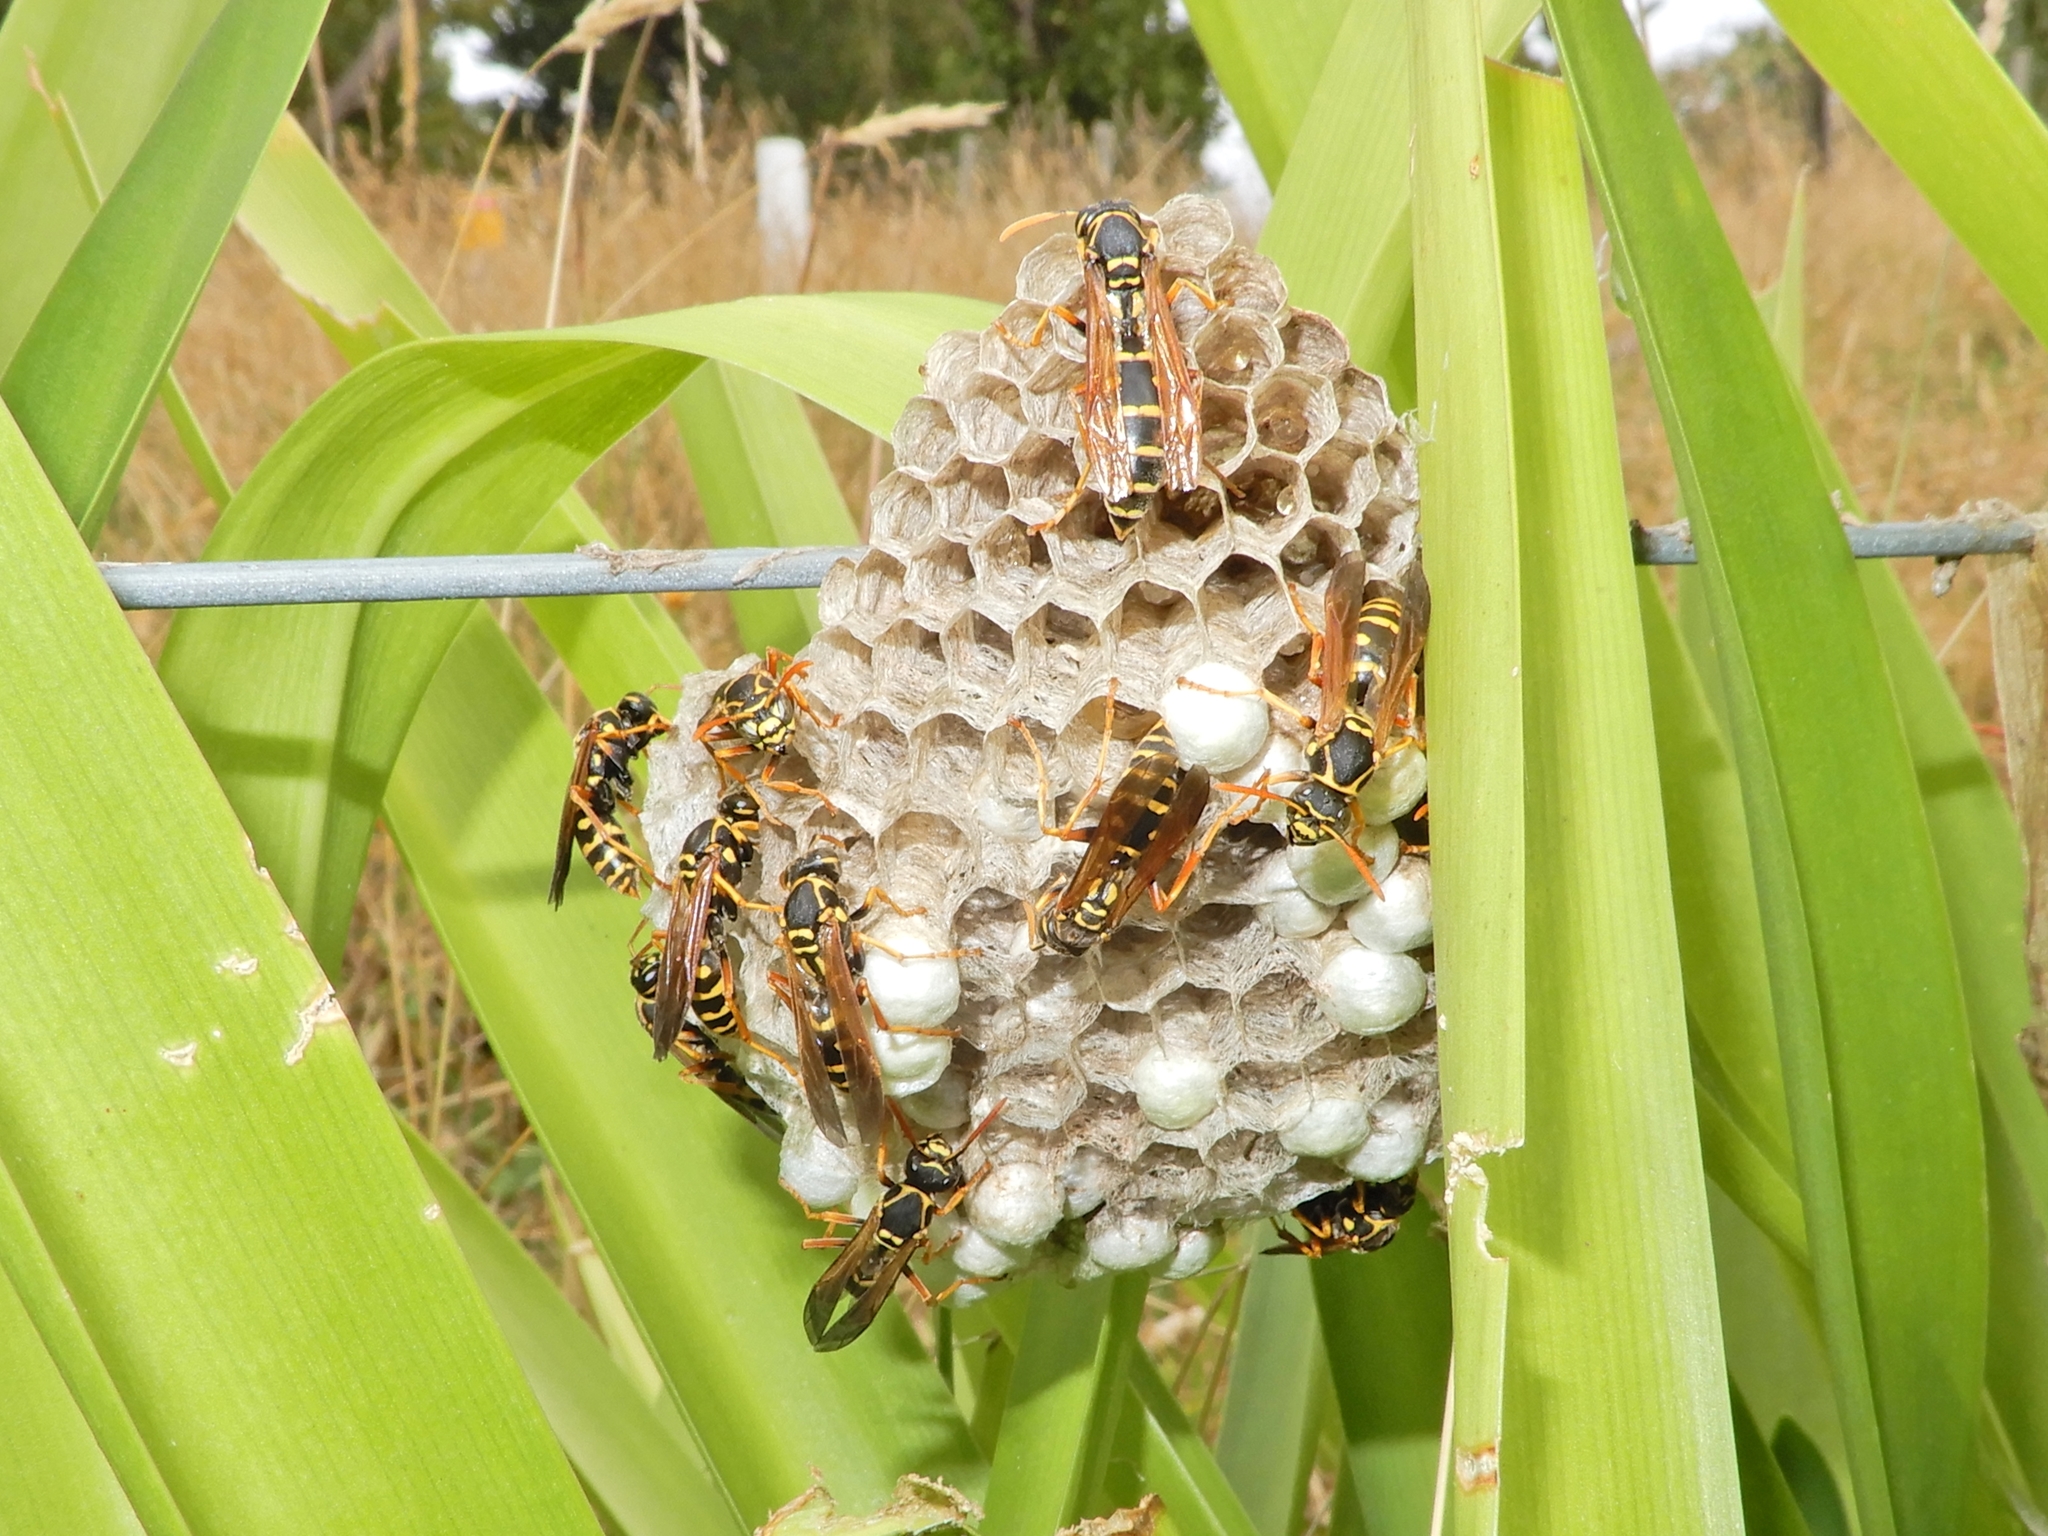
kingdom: Animalia
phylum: Arthropoda
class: Insecta
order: Hymenoptera
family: Eumenidae
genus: Polistes
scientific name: Polistes chinensis
